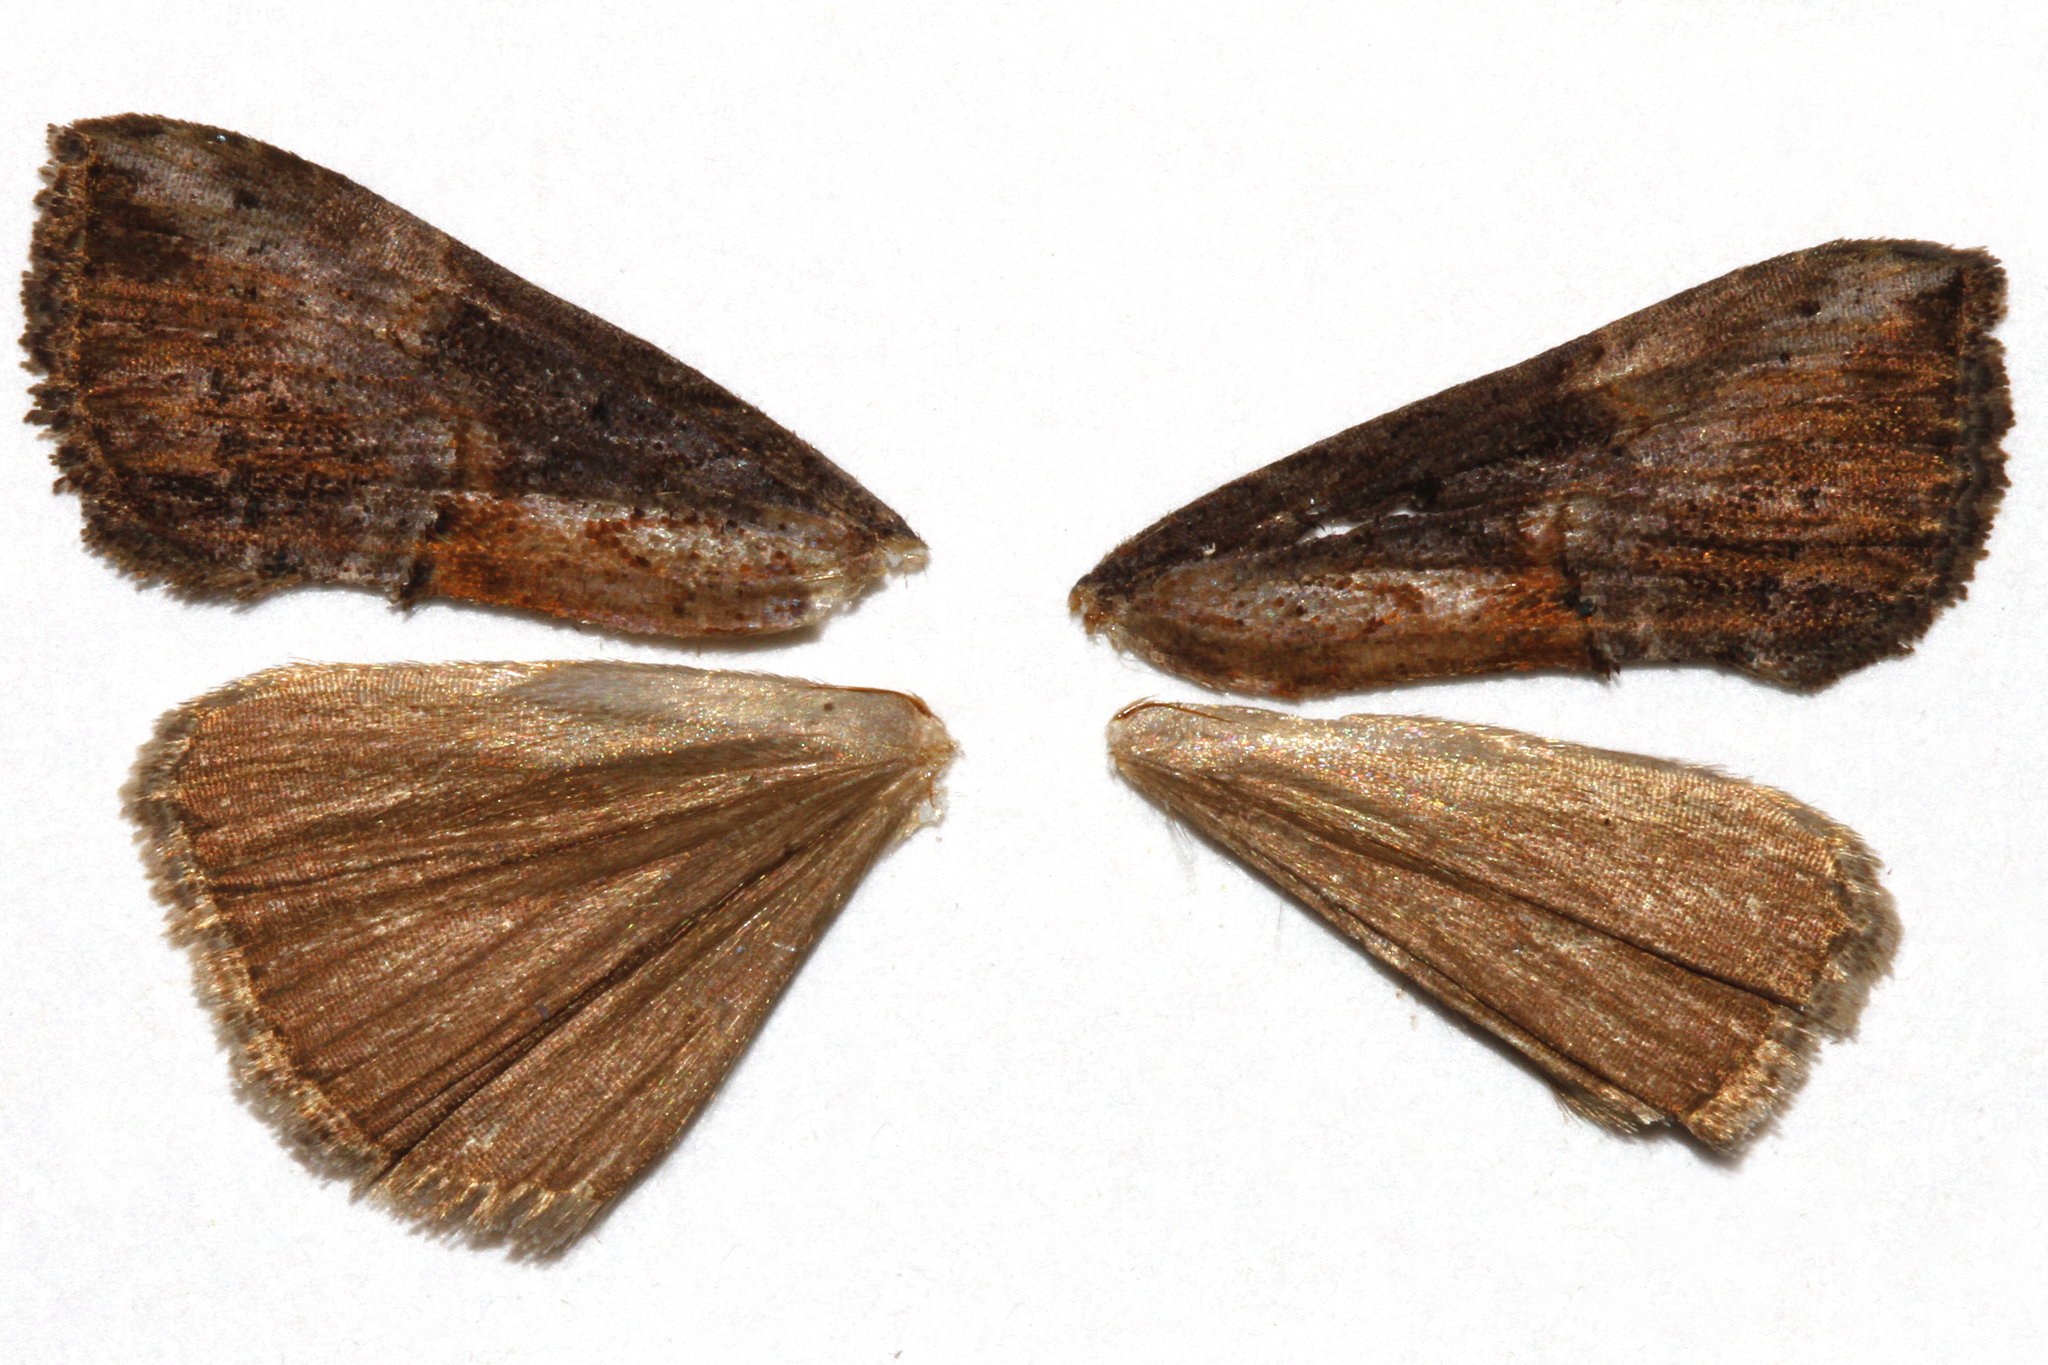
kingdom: Animalia
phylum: Arthropoda
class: Insecta
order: Lepidoptera
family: Erebidae
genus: Hypena
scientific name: Hypena scabra
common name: Green cloverworm
